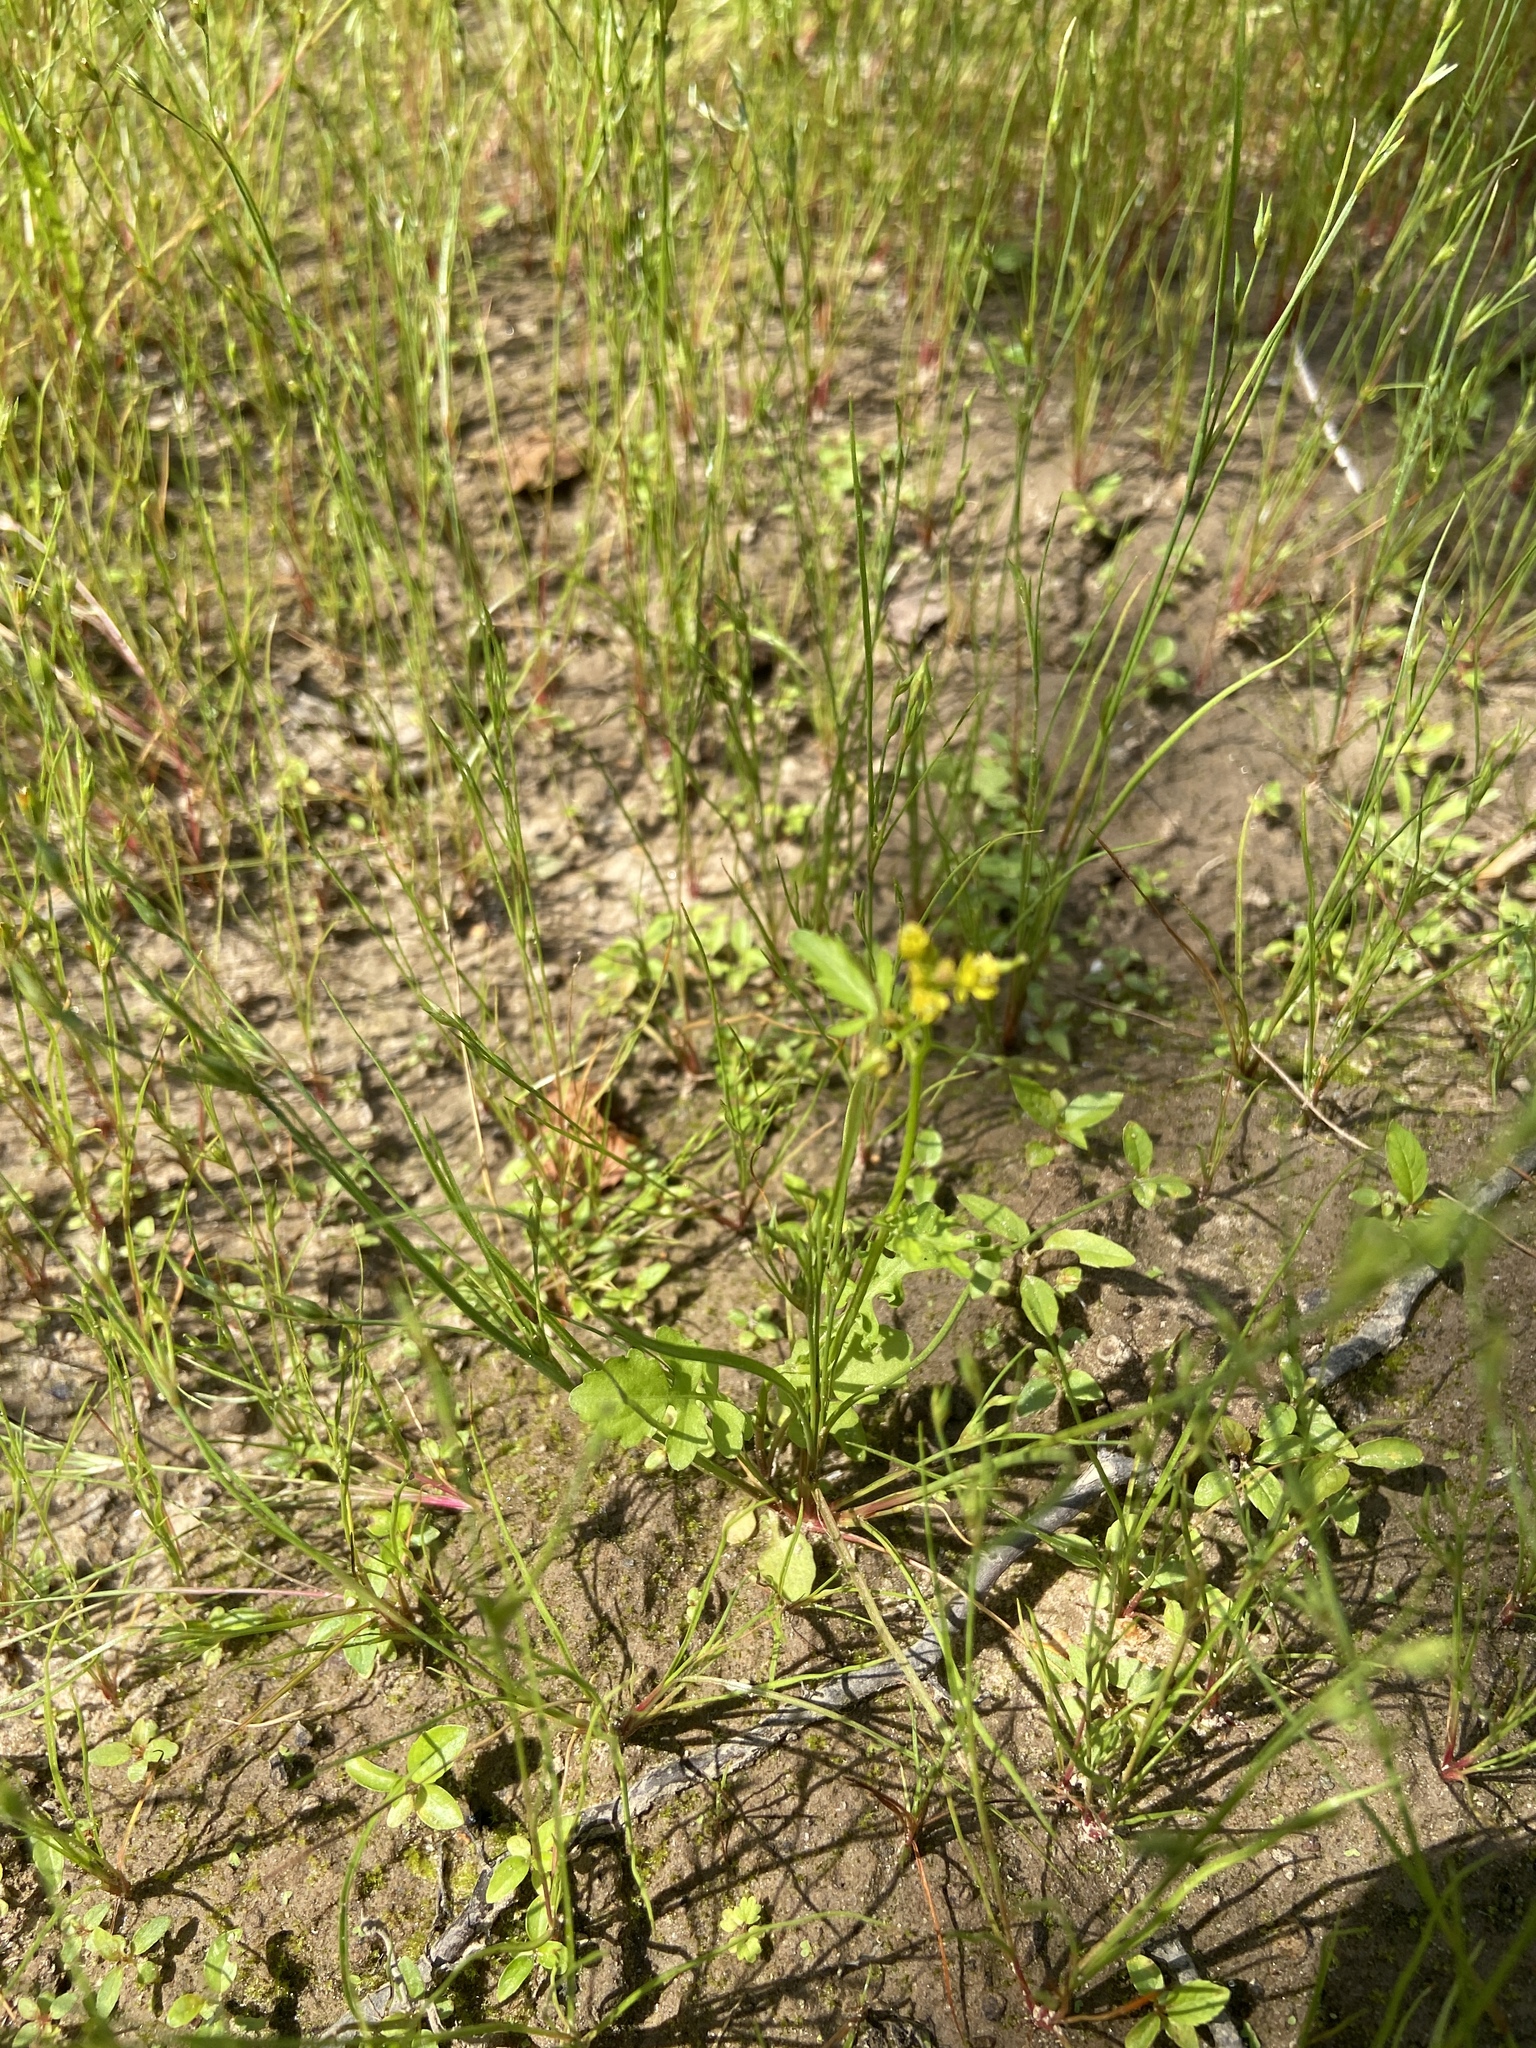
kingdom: Plantae
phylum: Tracheophyta
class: Liliopsida
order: Poales
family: Juncaceae
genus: Juncus
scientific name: Juncus bufonius
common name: Toad rush
